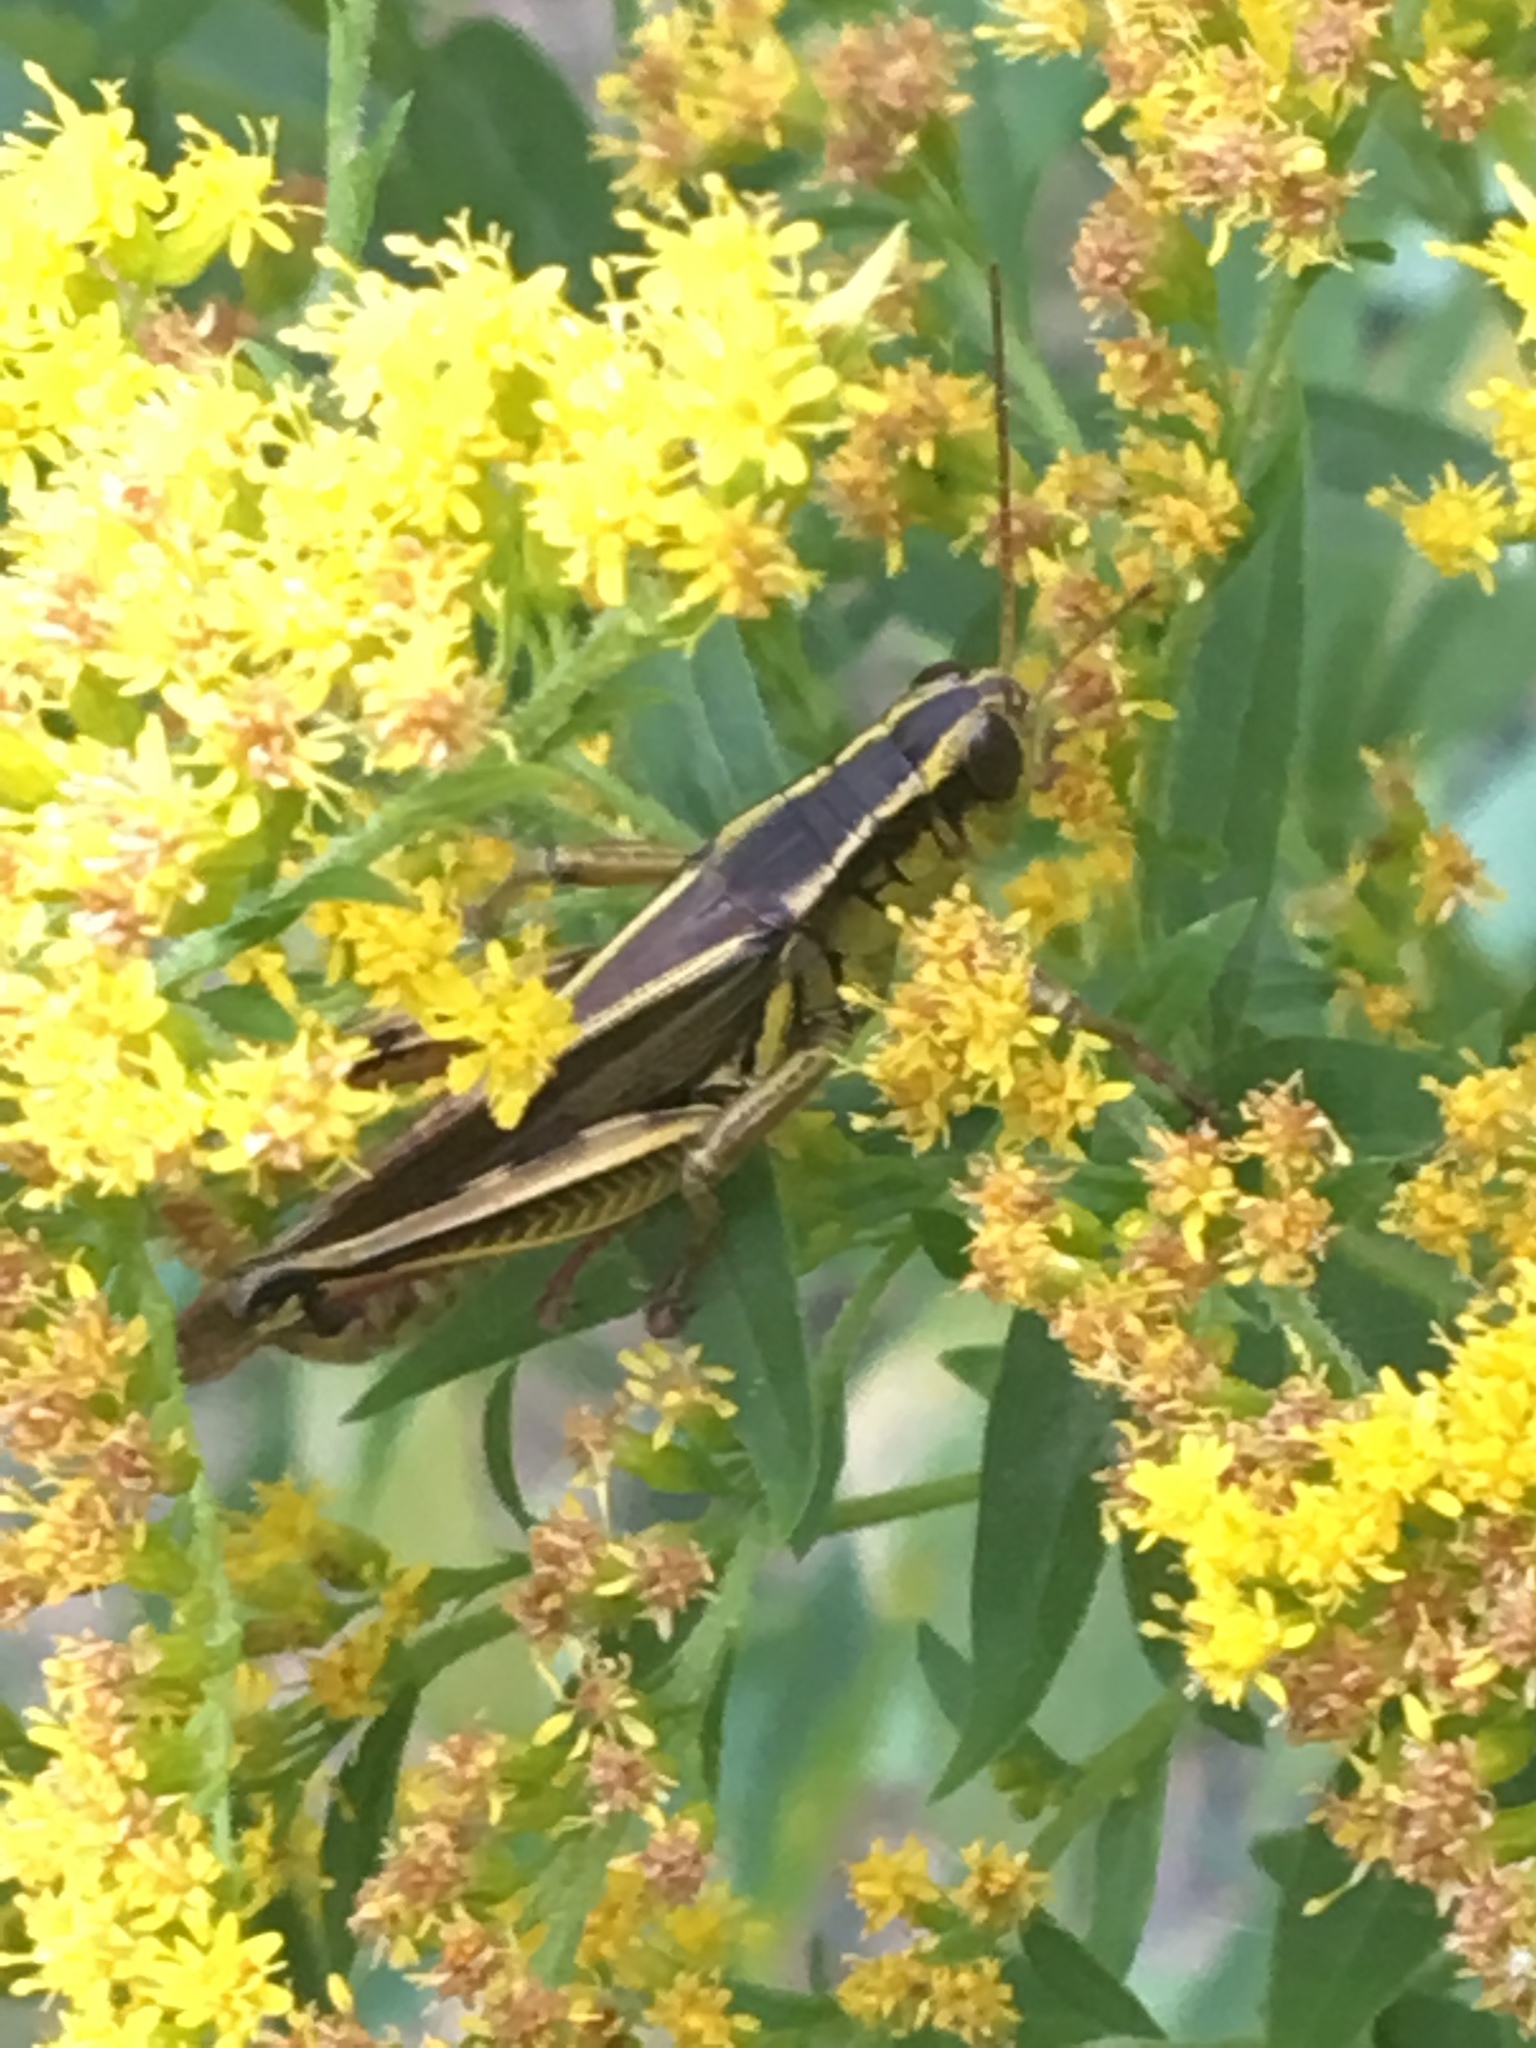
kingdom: Animalia
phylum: Arthropoda
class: Insecta
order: Orthoptera
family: Acrididae
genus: Melanoplus
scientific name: Melanoplus bivittatus
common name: Two-striped grasshopper
